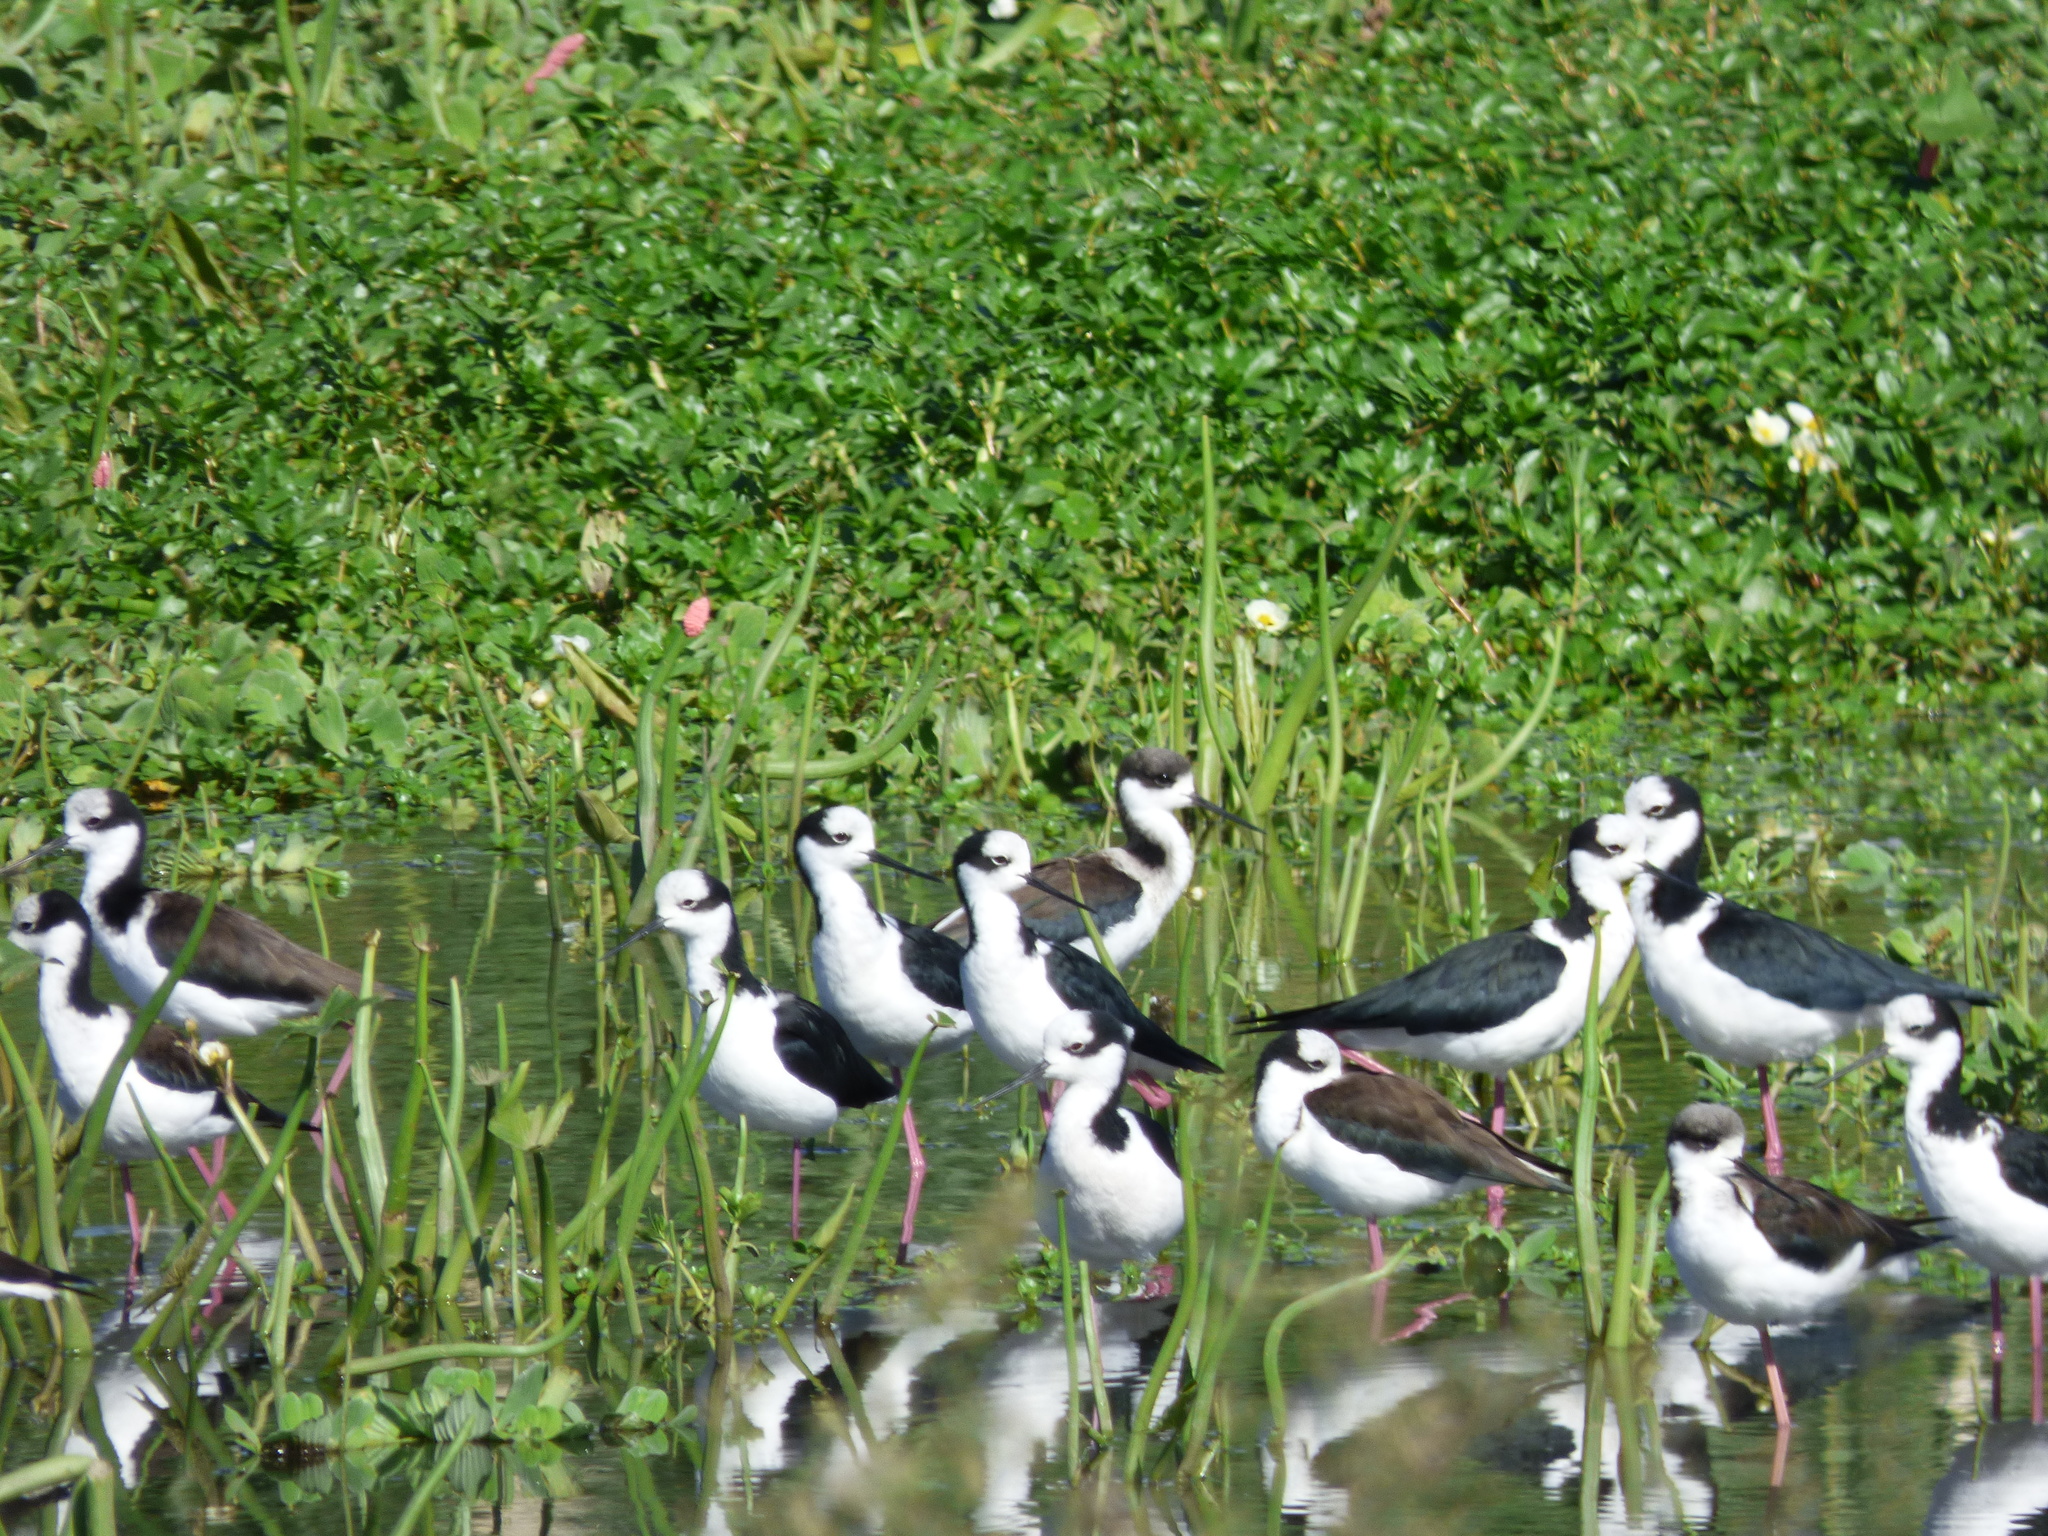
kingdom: Animalia
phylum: Chordata
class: Aves
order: Charadriiformes
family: Recurvirostridae
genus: Himantopus
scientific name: Himantopus mexicanus
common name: Black-necked stilt
